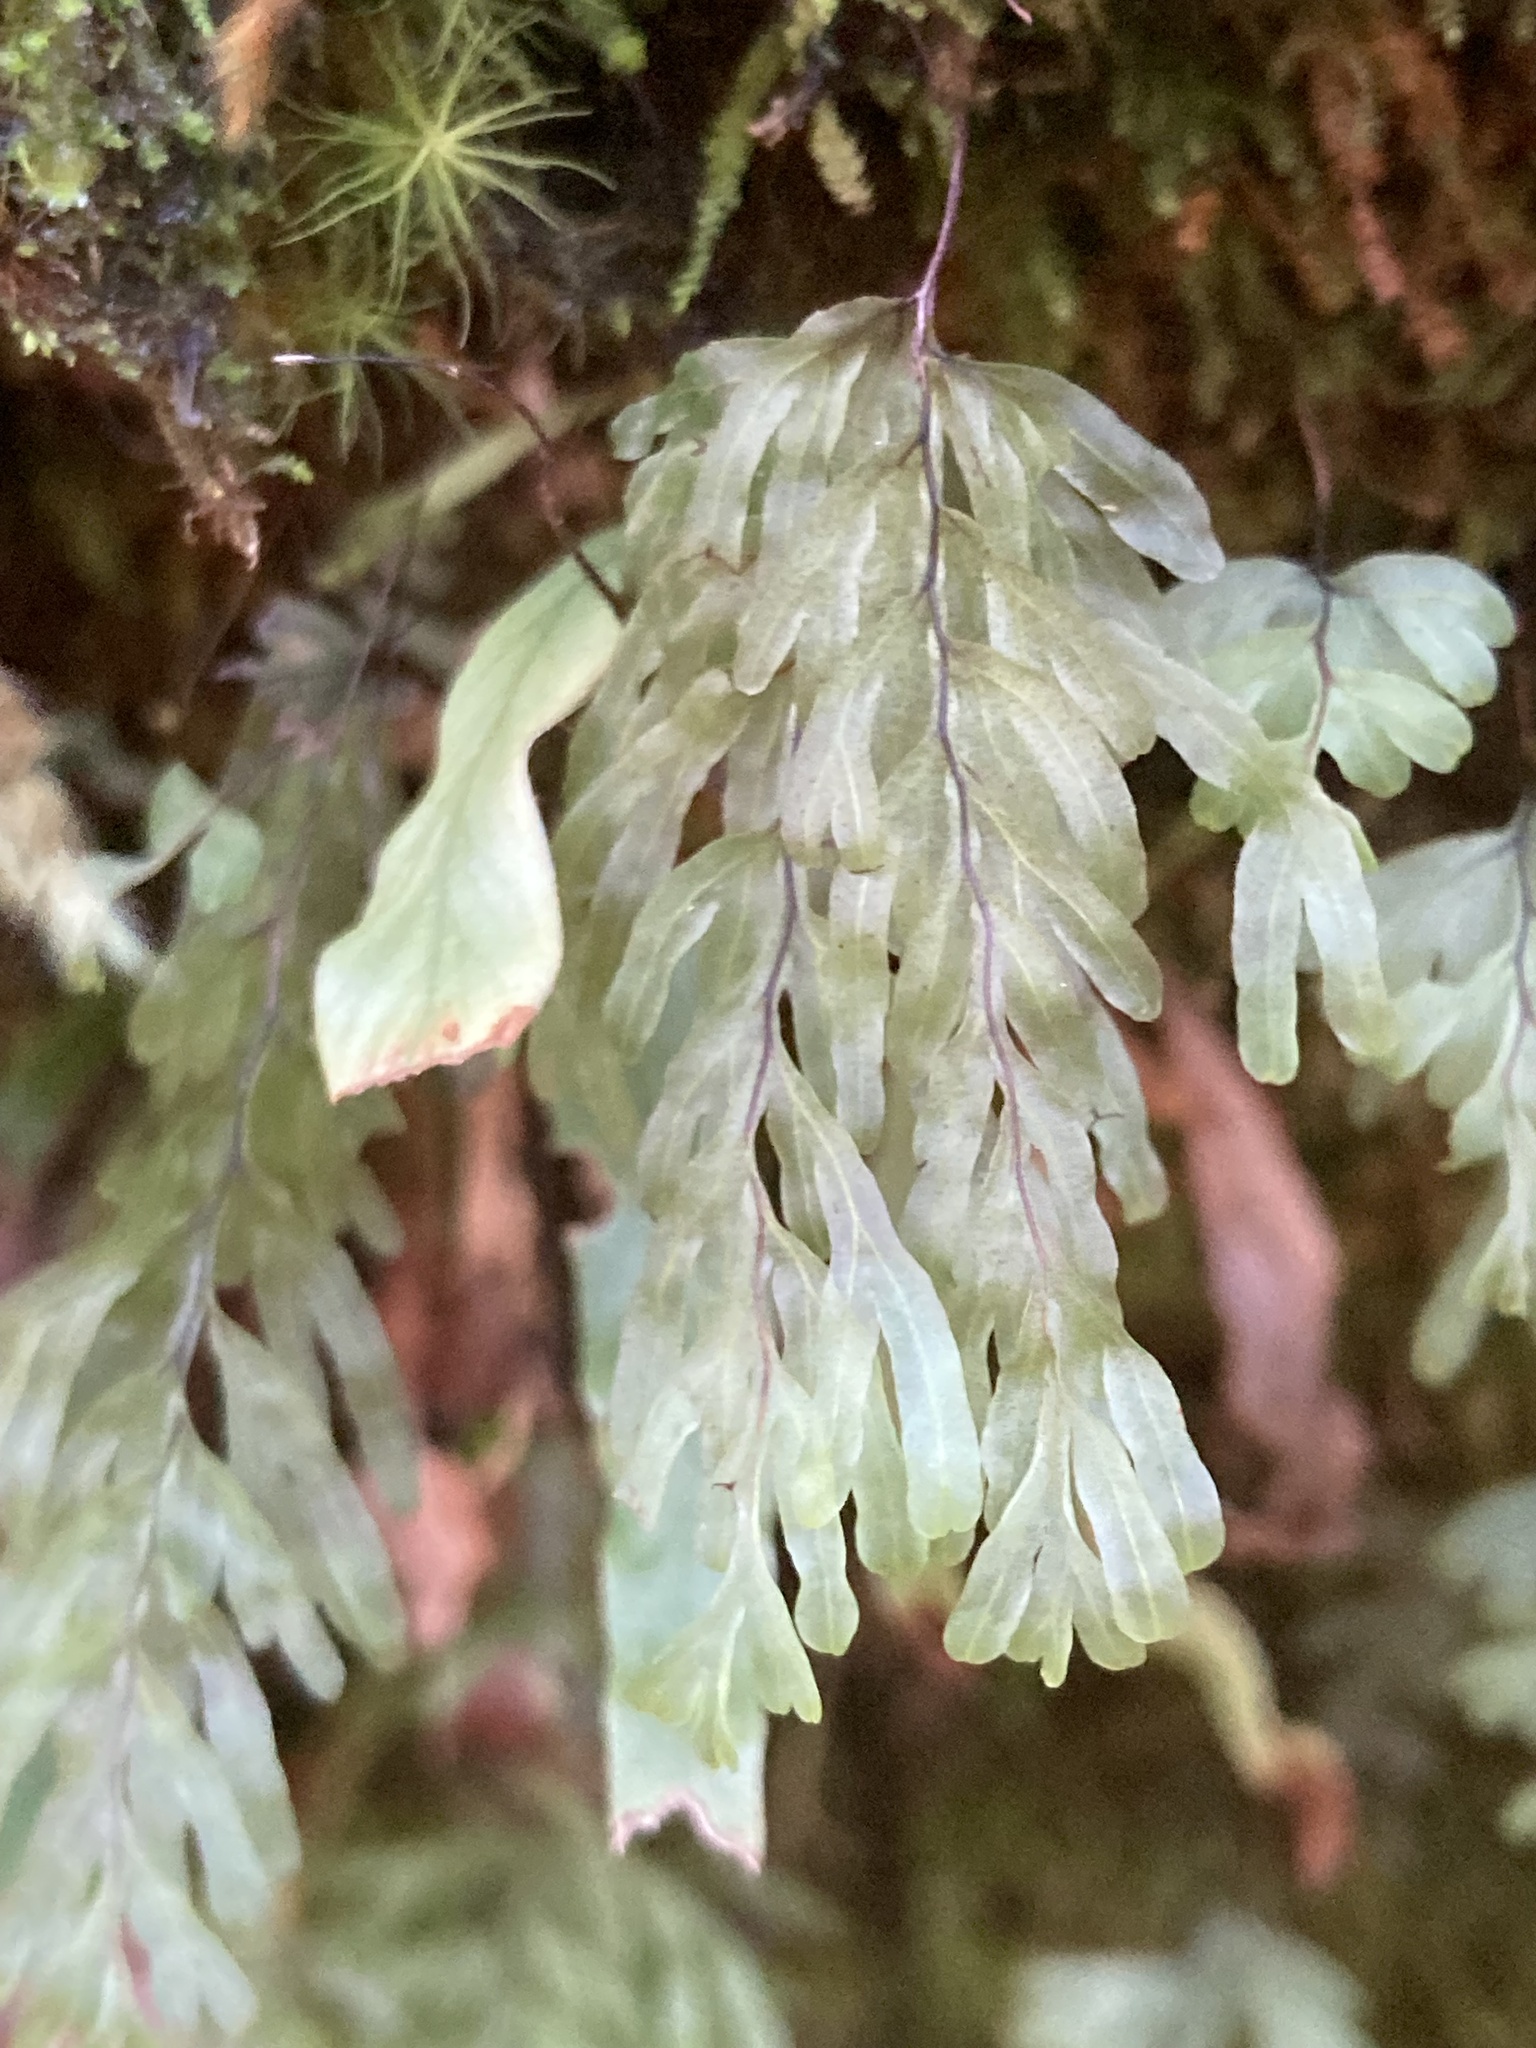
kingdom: Plantae
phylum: Tracheophyta
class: Polypodiopsida
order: Hymenophyllales
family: Hymenophyllaceae
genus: Hymenophyllum
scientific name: Hymenophyllum rarum
